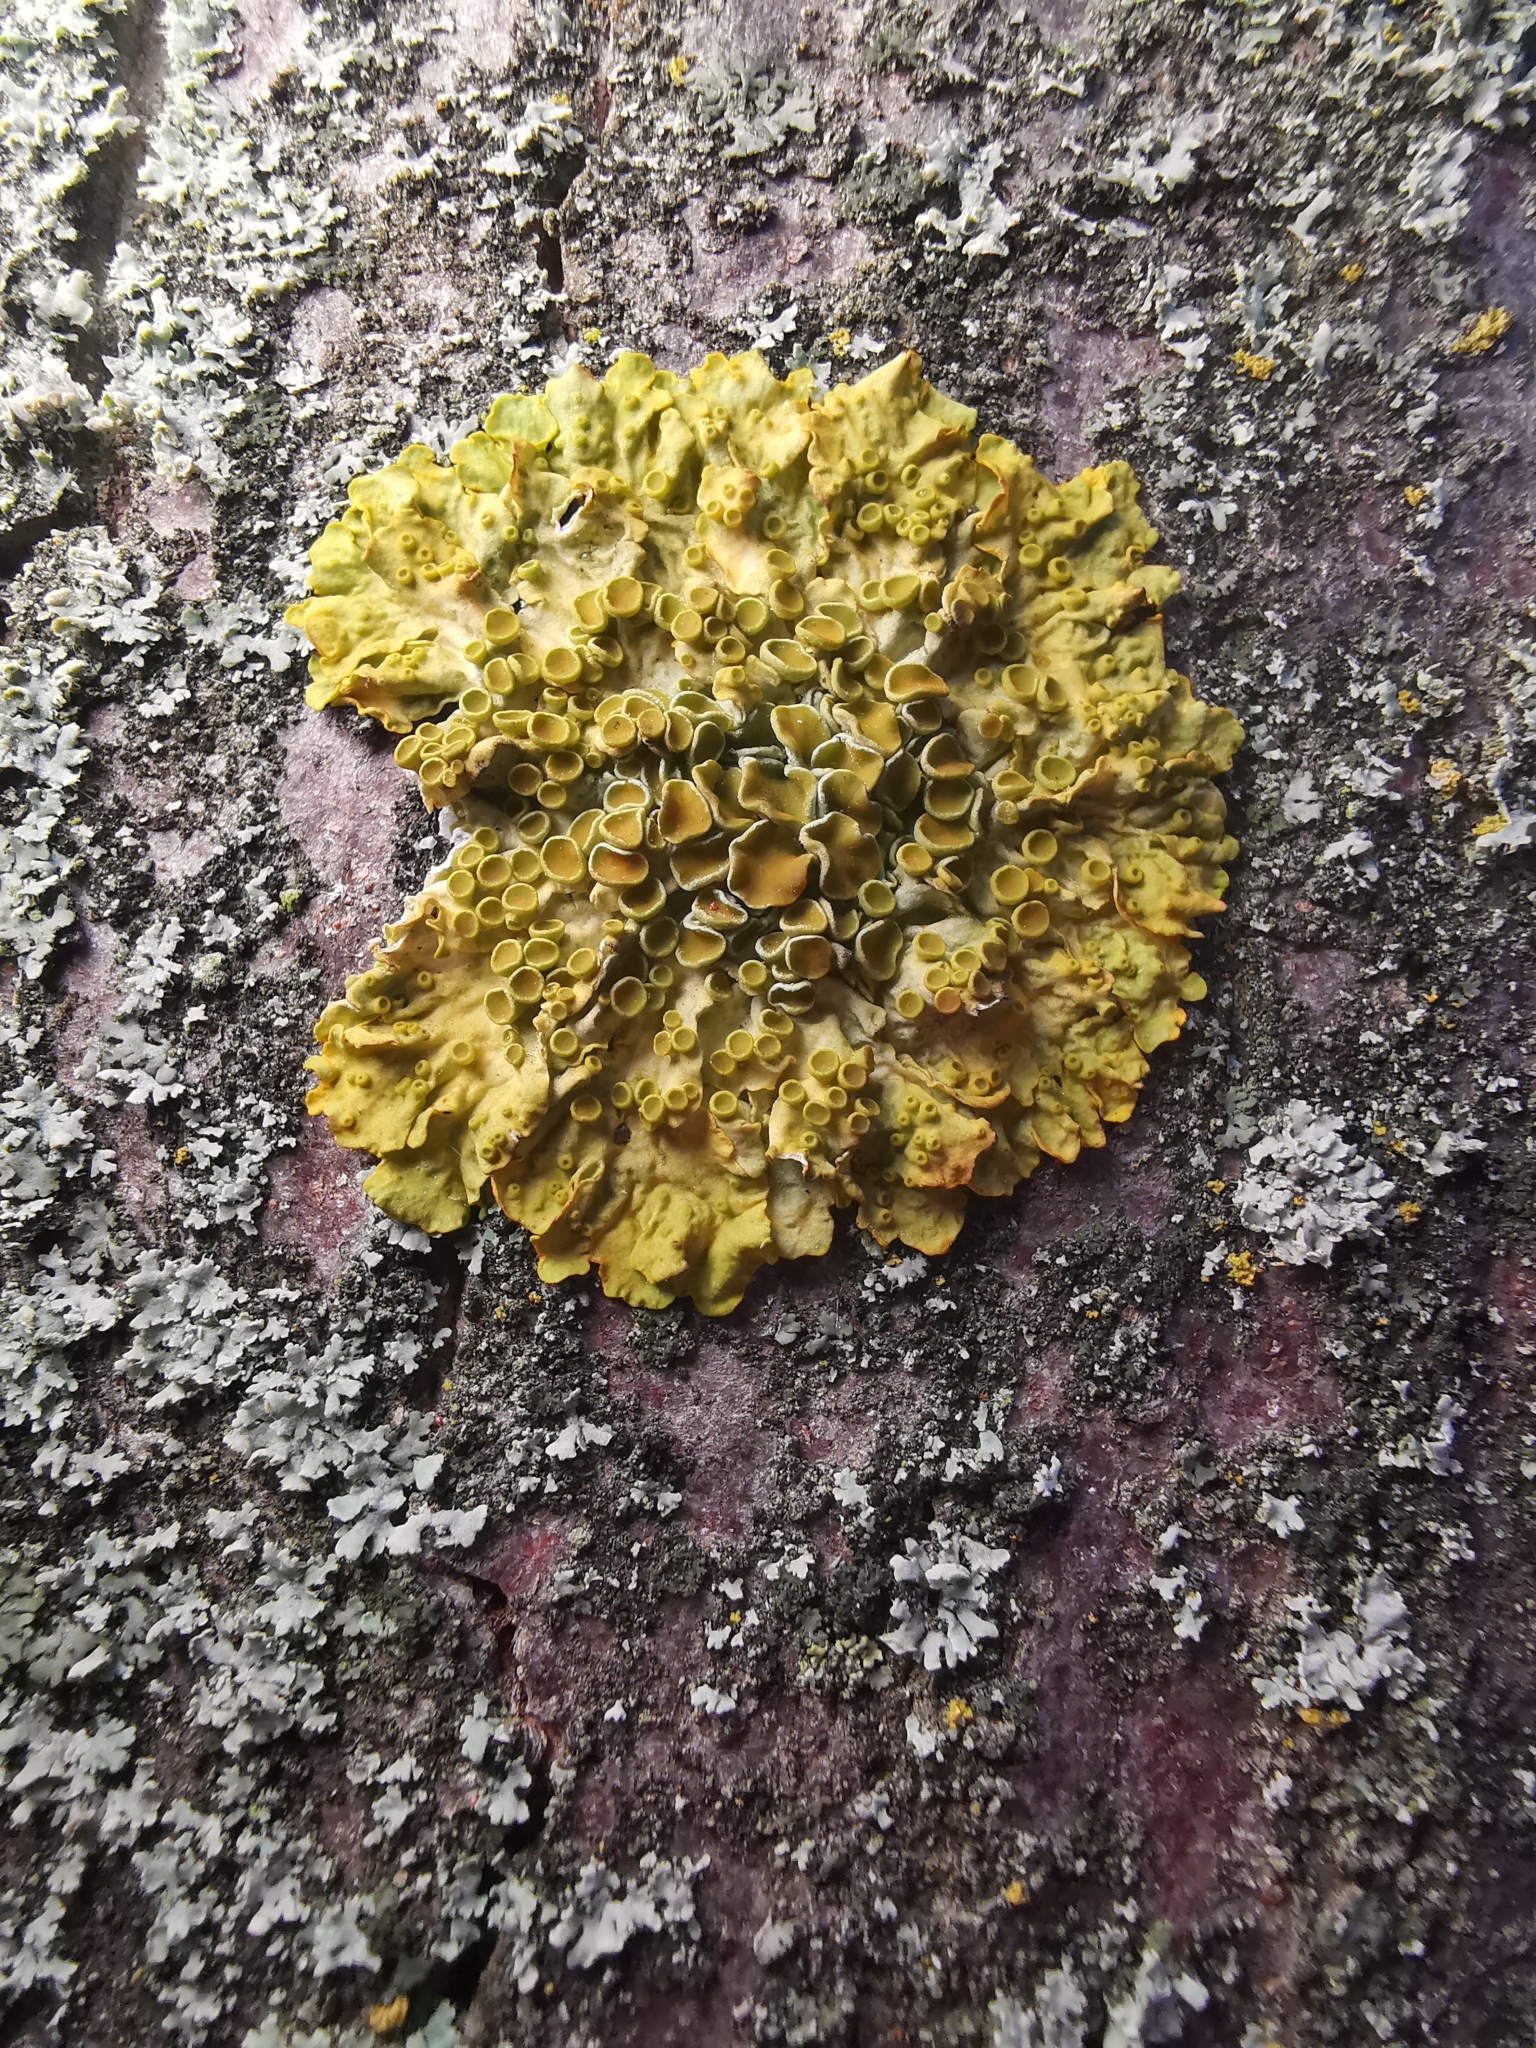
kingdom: Fungi
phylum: Ascomycota
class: Lecanoromycetes
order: Teloschistales
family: Teloschistaceae
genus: Xanthoria
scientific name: Xanthoria parietina
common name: Common orange lichen
